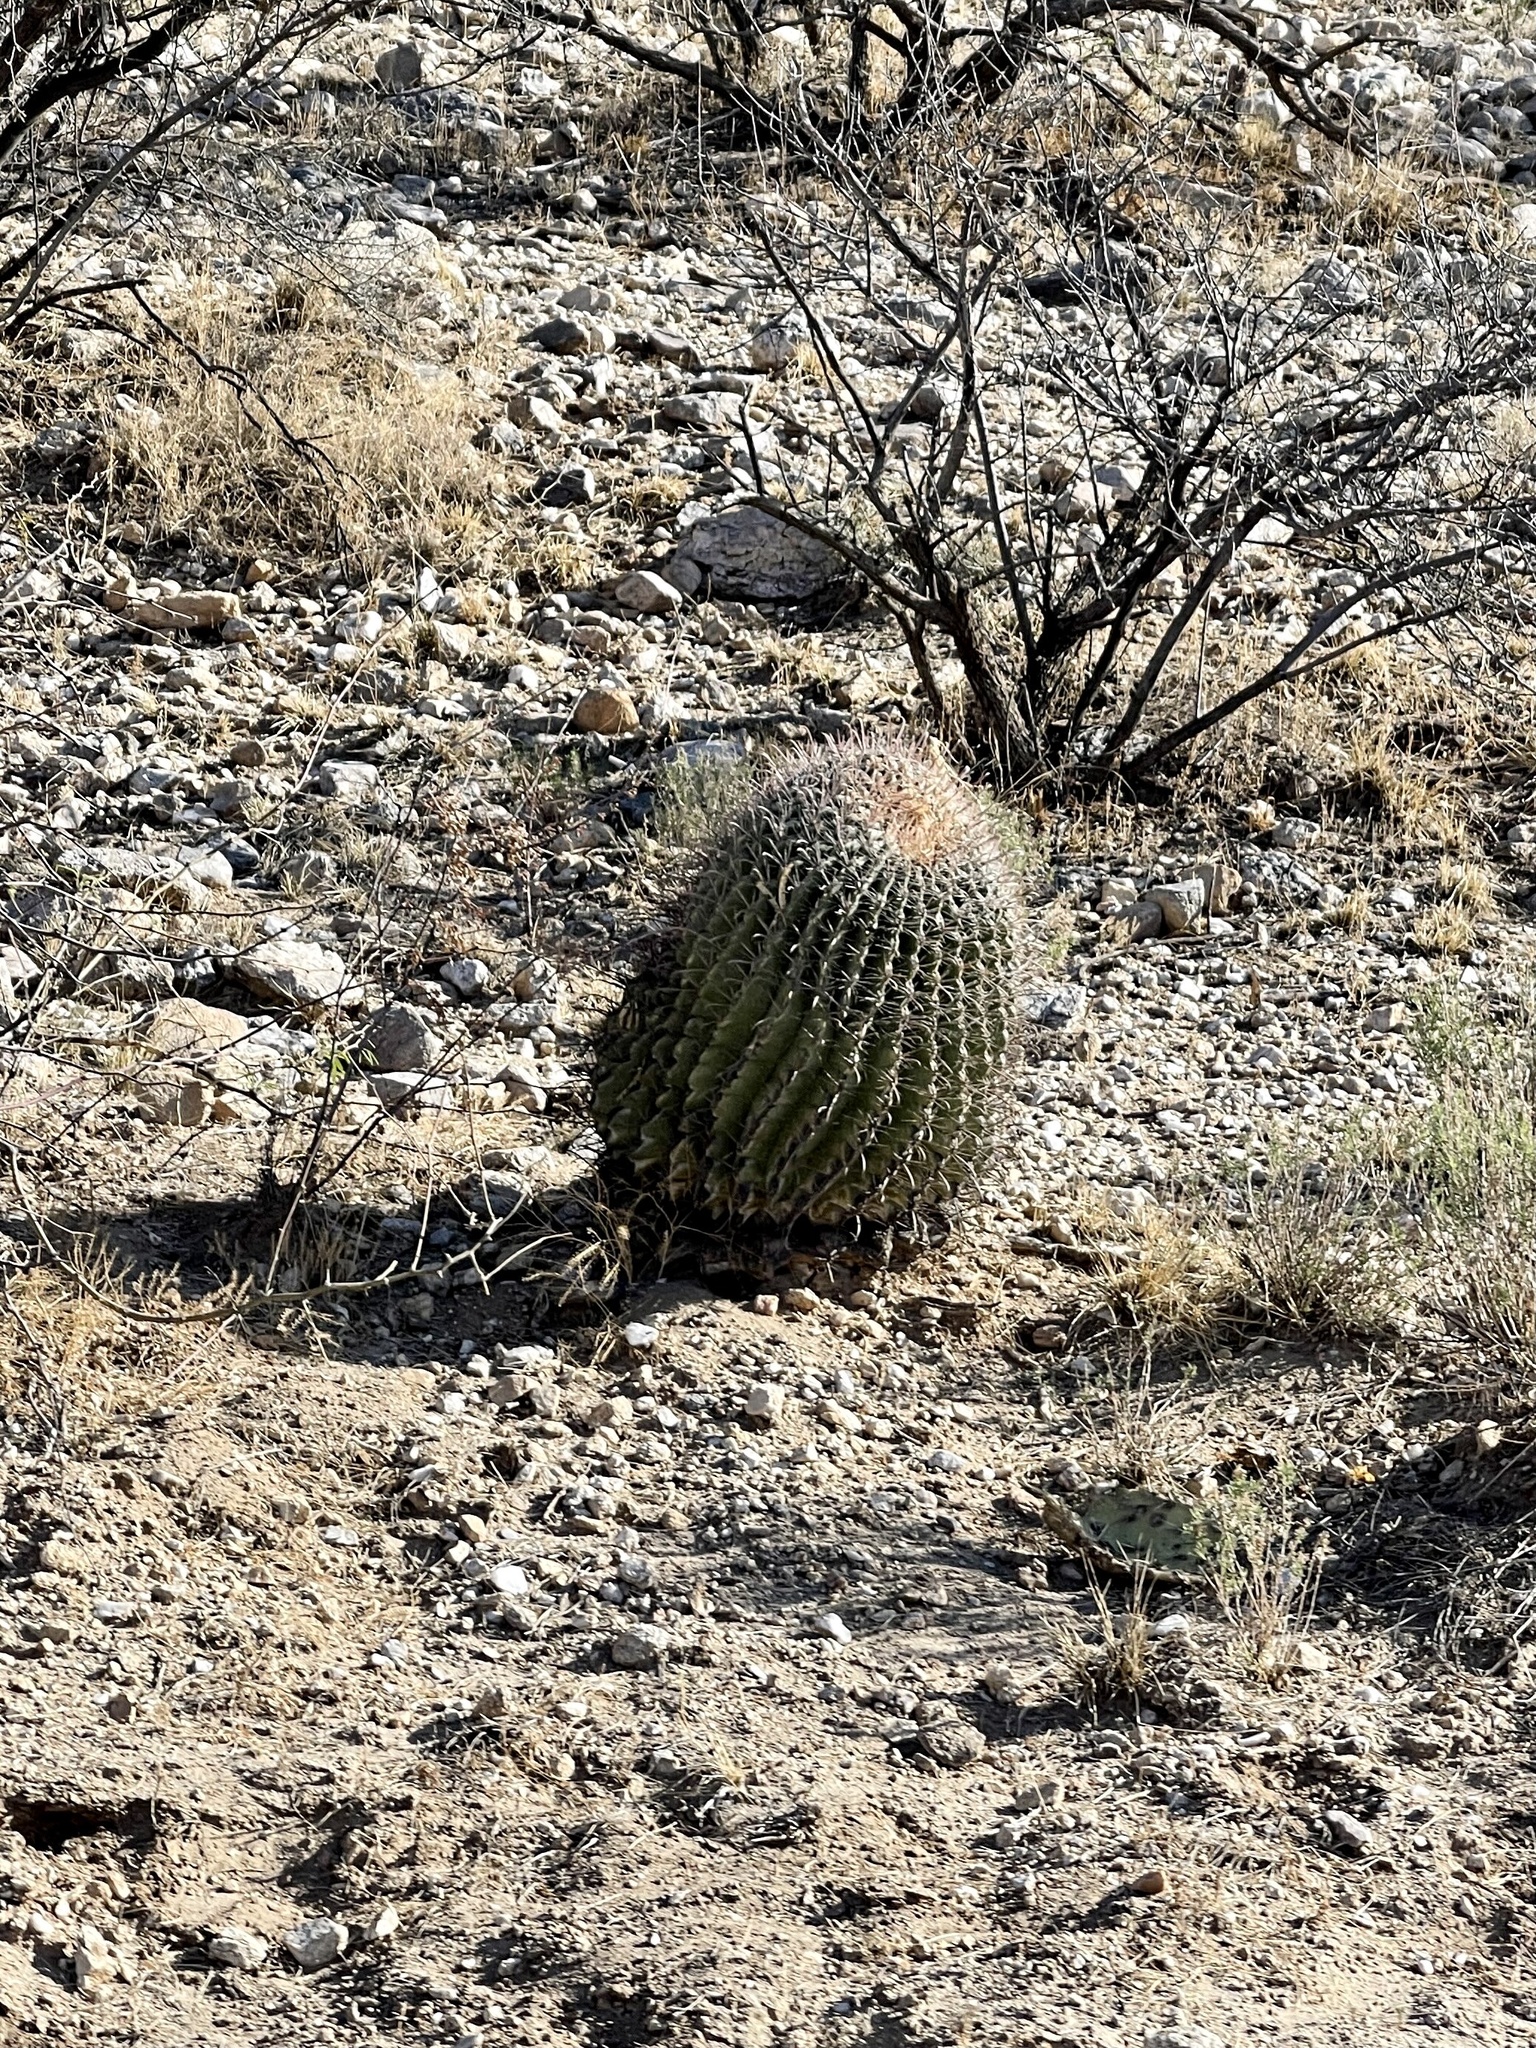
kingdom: Plantae
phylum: Tracheophyta
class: Magnoliopsida
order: Caryophyllales
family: Cactaceae
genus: Ferocactus
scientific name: Ferocactus wislizeni
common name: Candy barrel cactus
